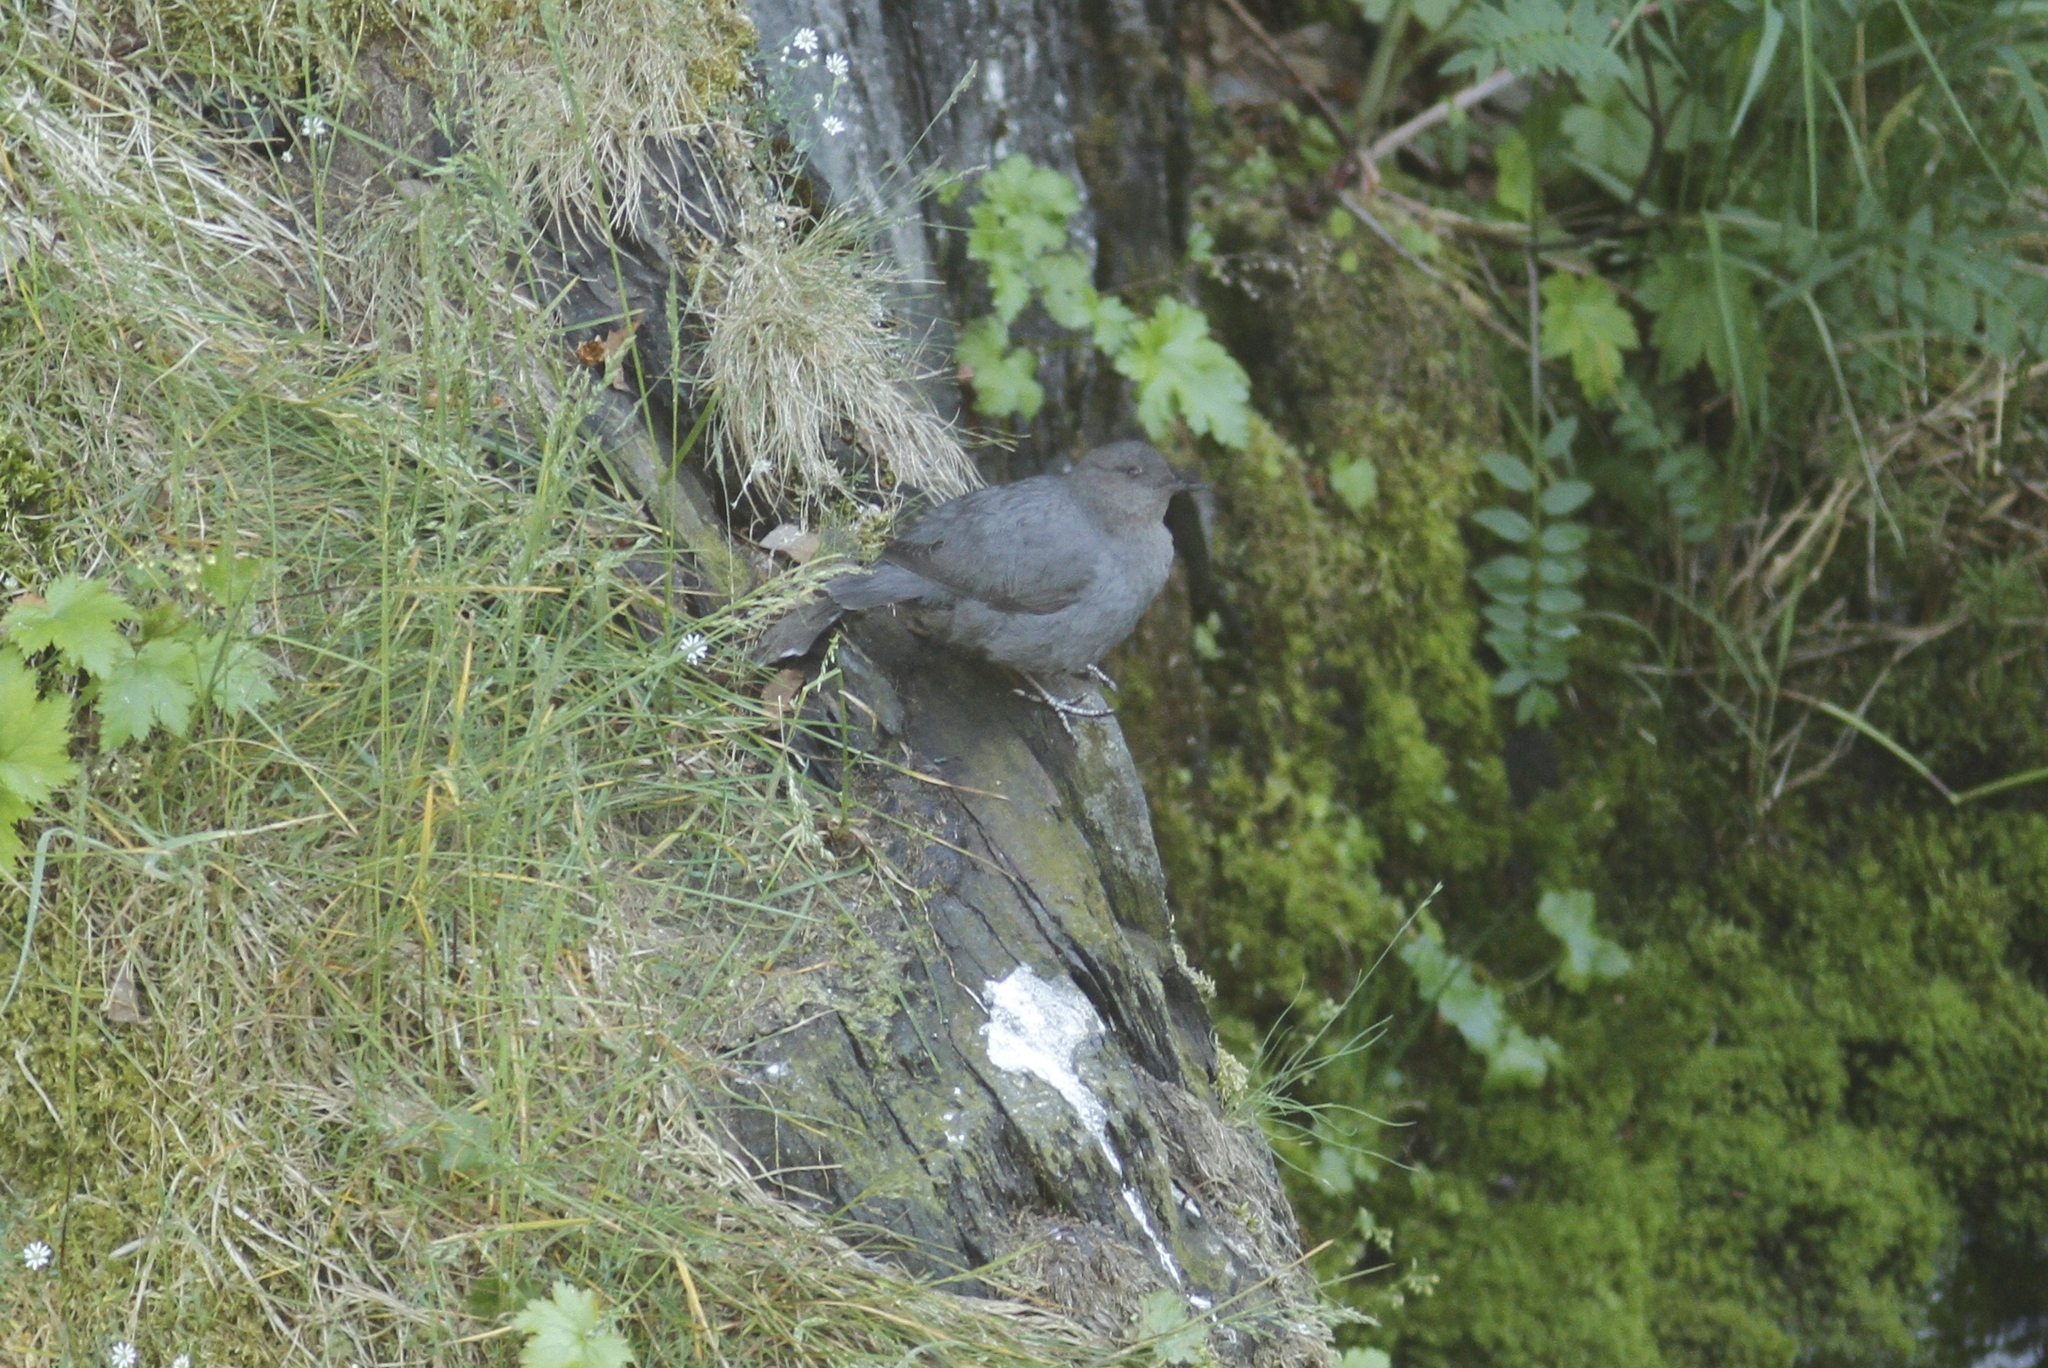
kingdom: Animalia
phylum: Chordata
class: Aves
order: Passeriformes
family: Cinclidae
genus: Cinclus
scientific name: Cinclus mexicanus
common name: American dipper
